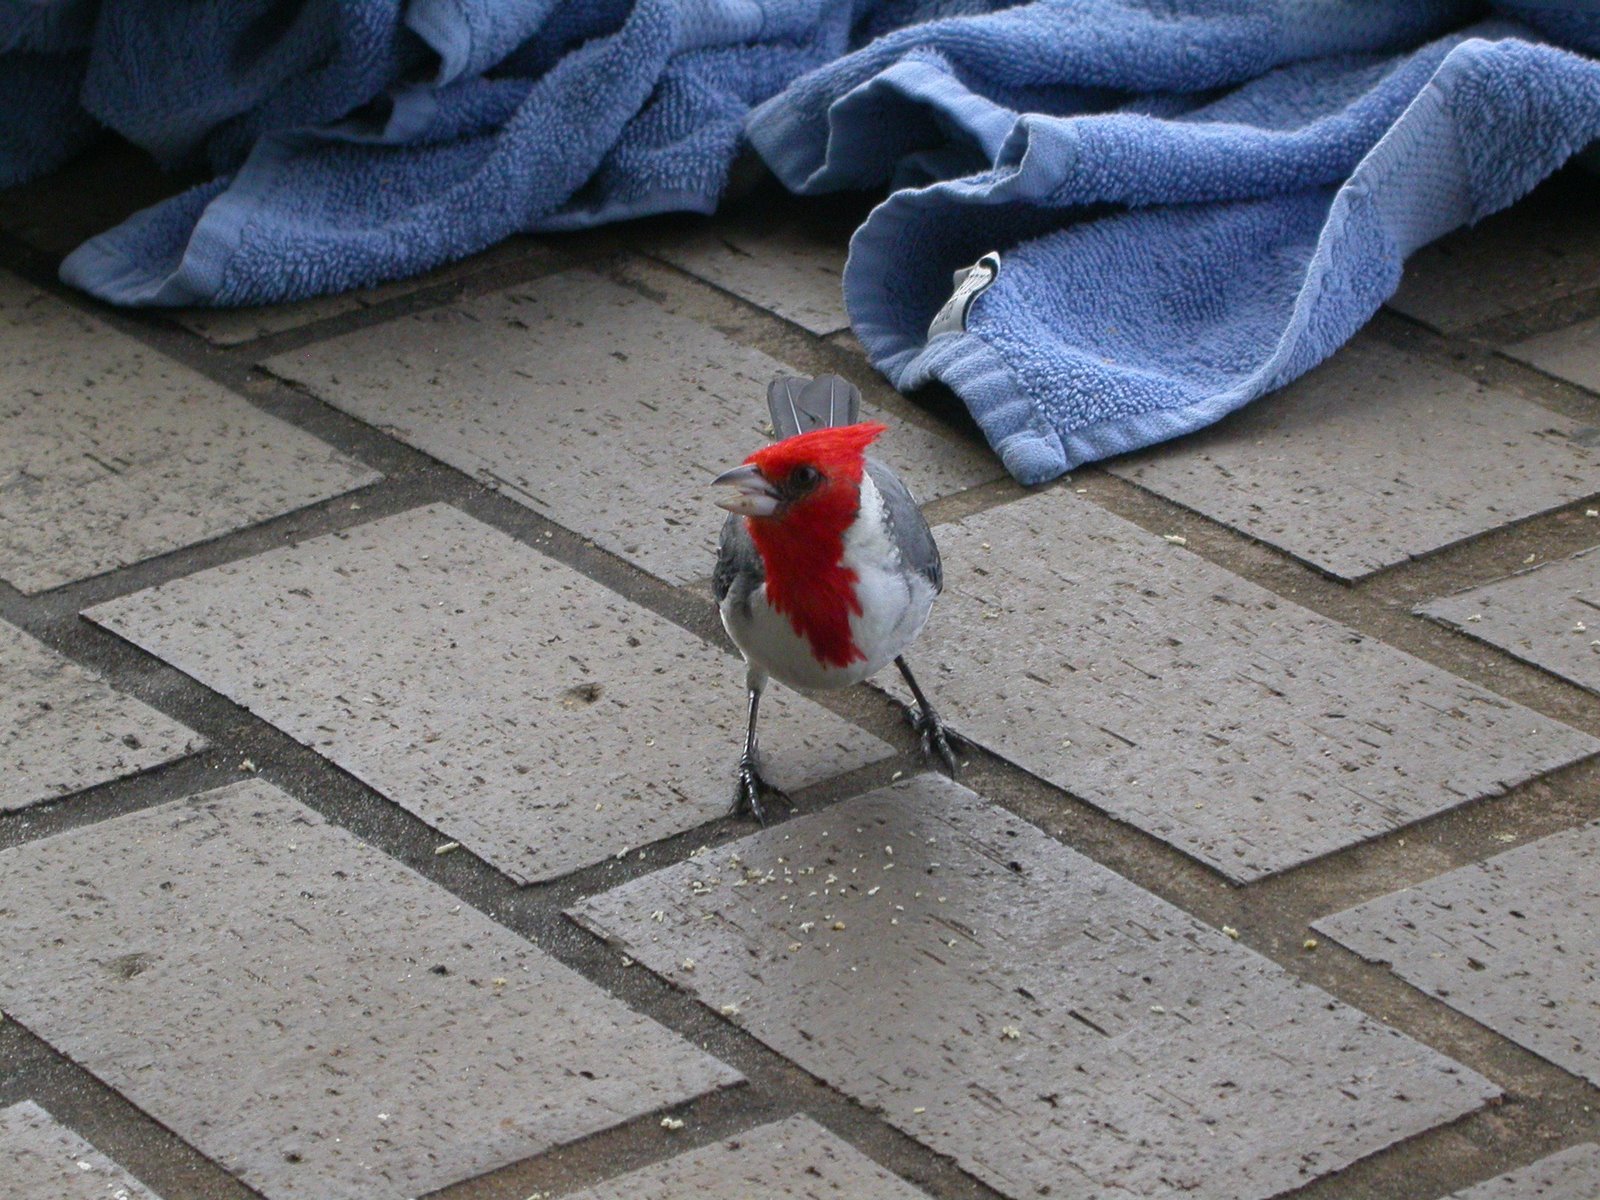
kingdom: Animalia
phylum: Chordata
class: Aves
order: Passeriformes
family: Thraupidae
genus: Paroaria
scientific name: Paroaria coronata
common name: Red-crested cardinal
